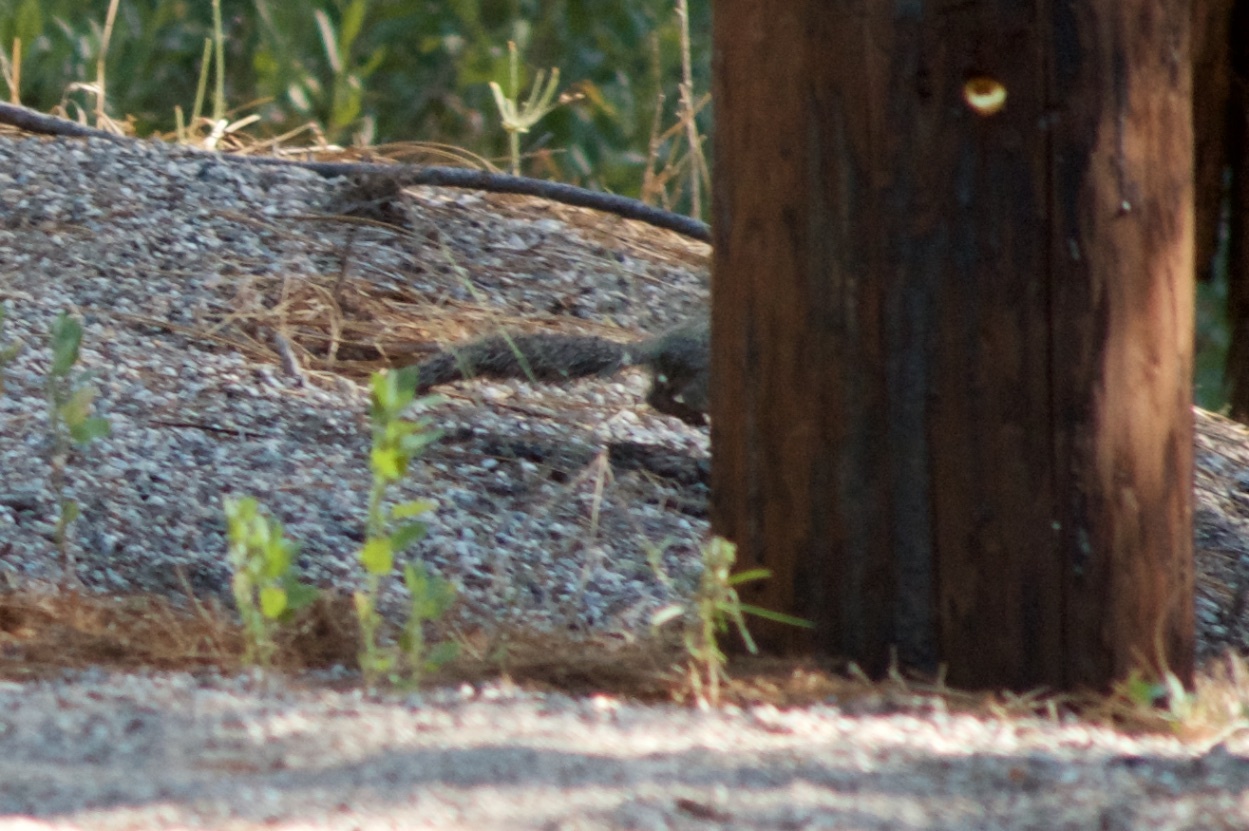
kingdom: Animalia
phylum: Chordata
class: Mammalia
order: Rodentia
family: Sciuridae
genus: Otospermophilus
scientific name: Otospermophilus beecheyi
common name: California ground squirrel
